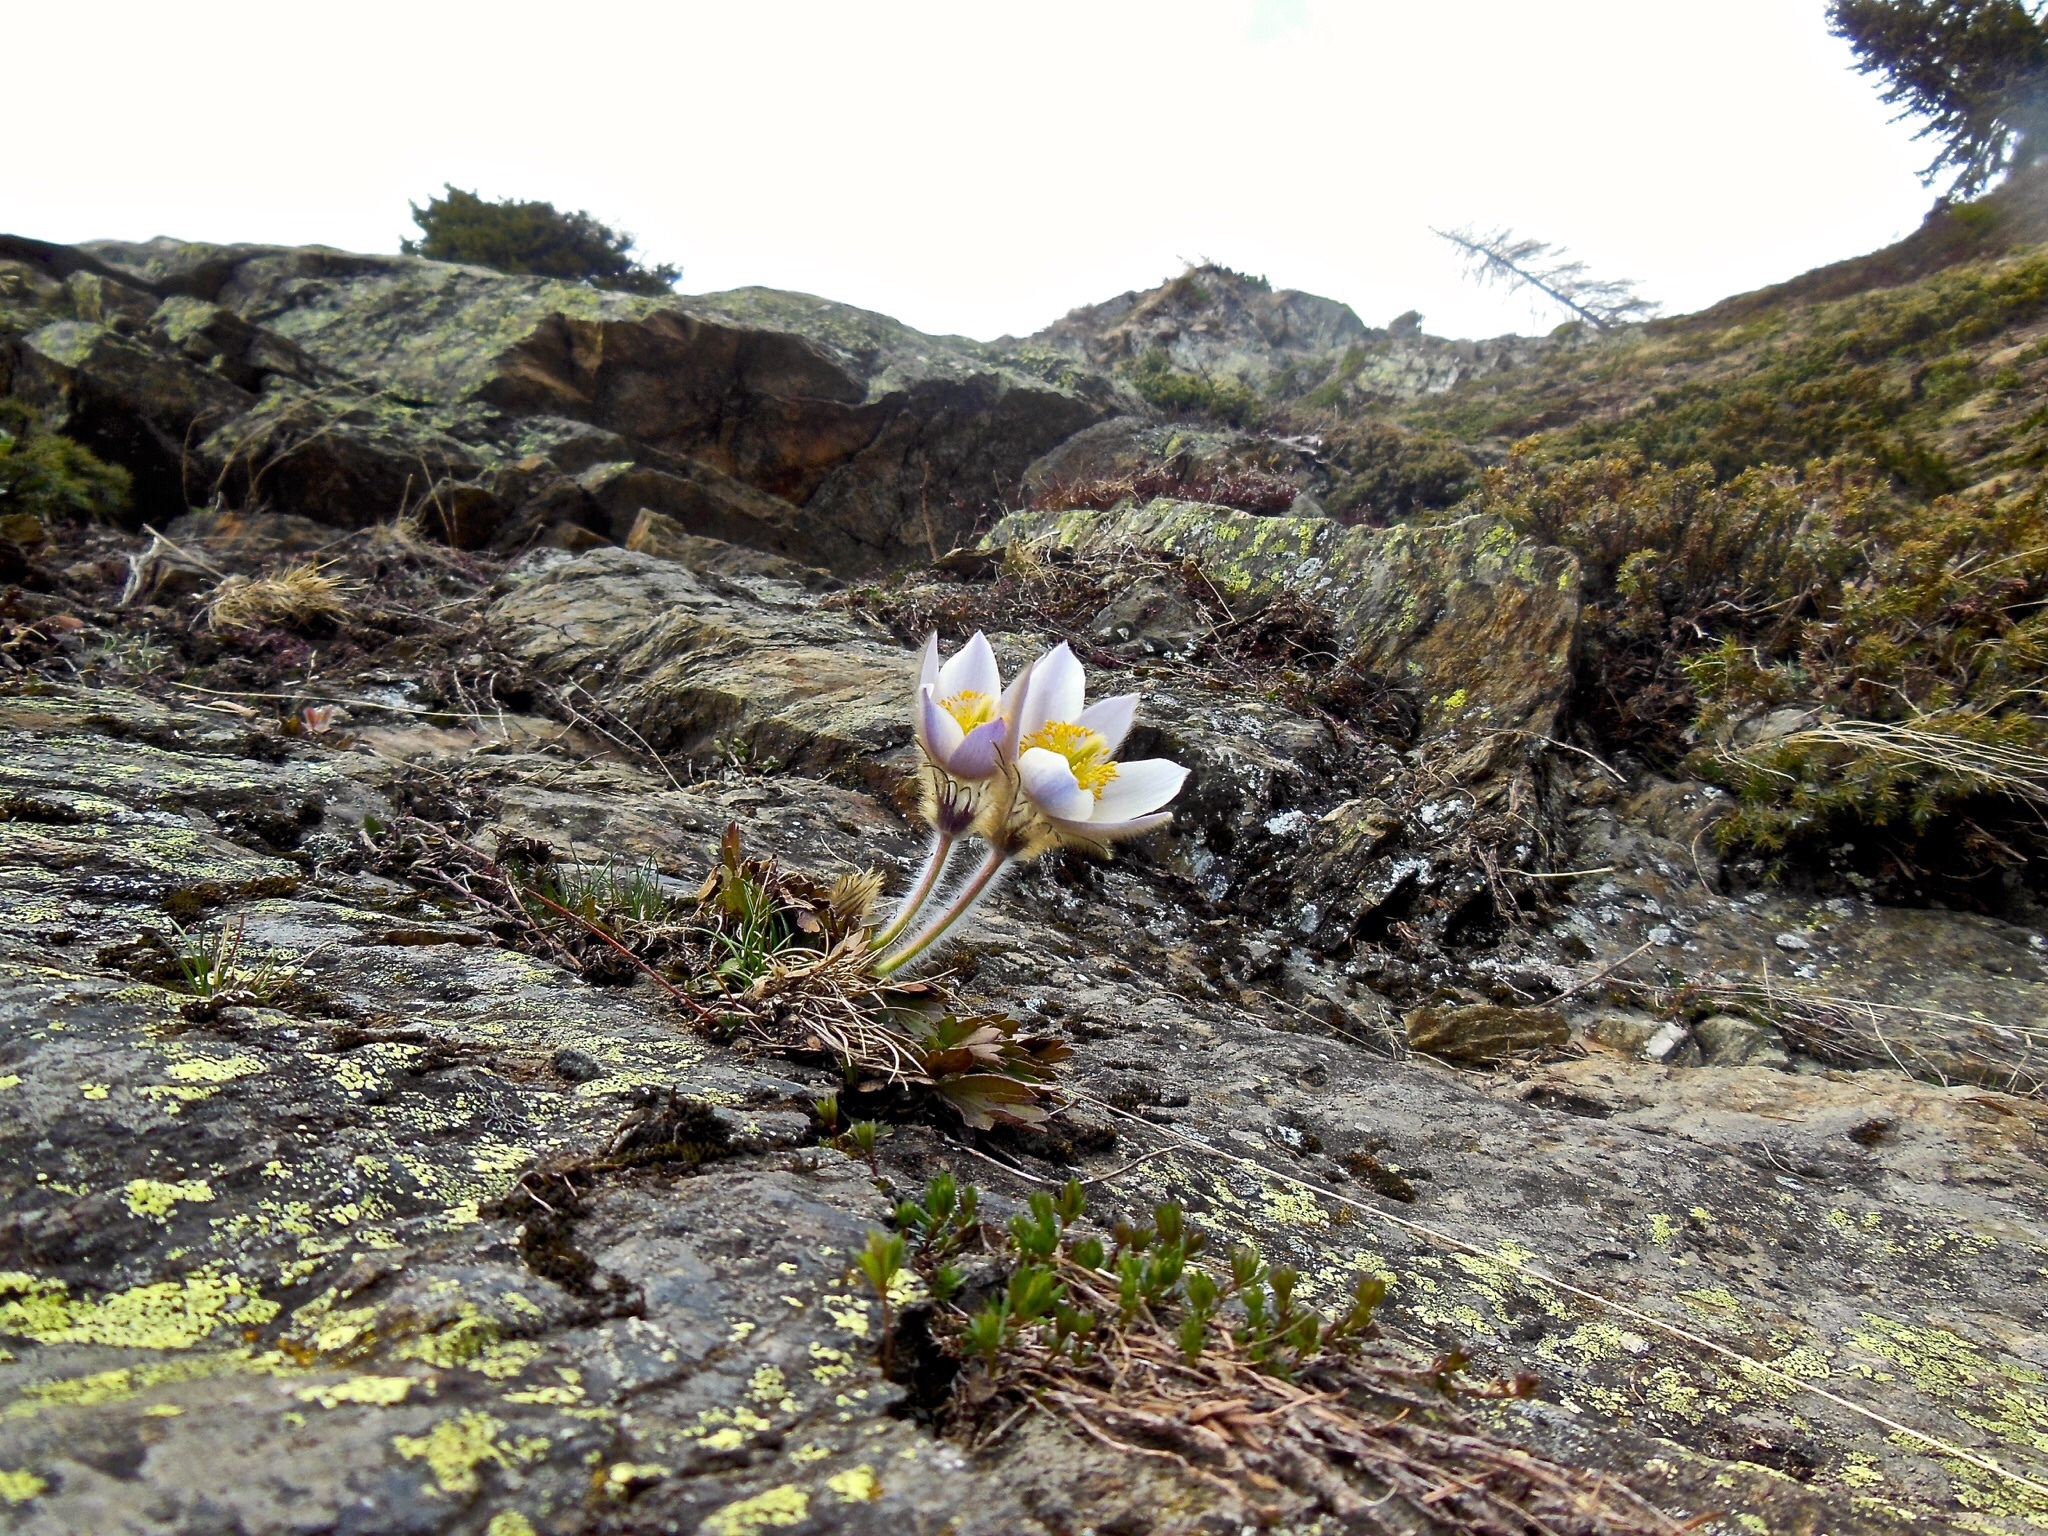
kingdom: Plantae
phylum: Tracheophyta
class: Magnoliopsida
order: Ranunculales
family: Ranunculaceae
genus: Pulsatilla
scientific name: Pulsatilla vernalis
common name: Spring pasque flower
